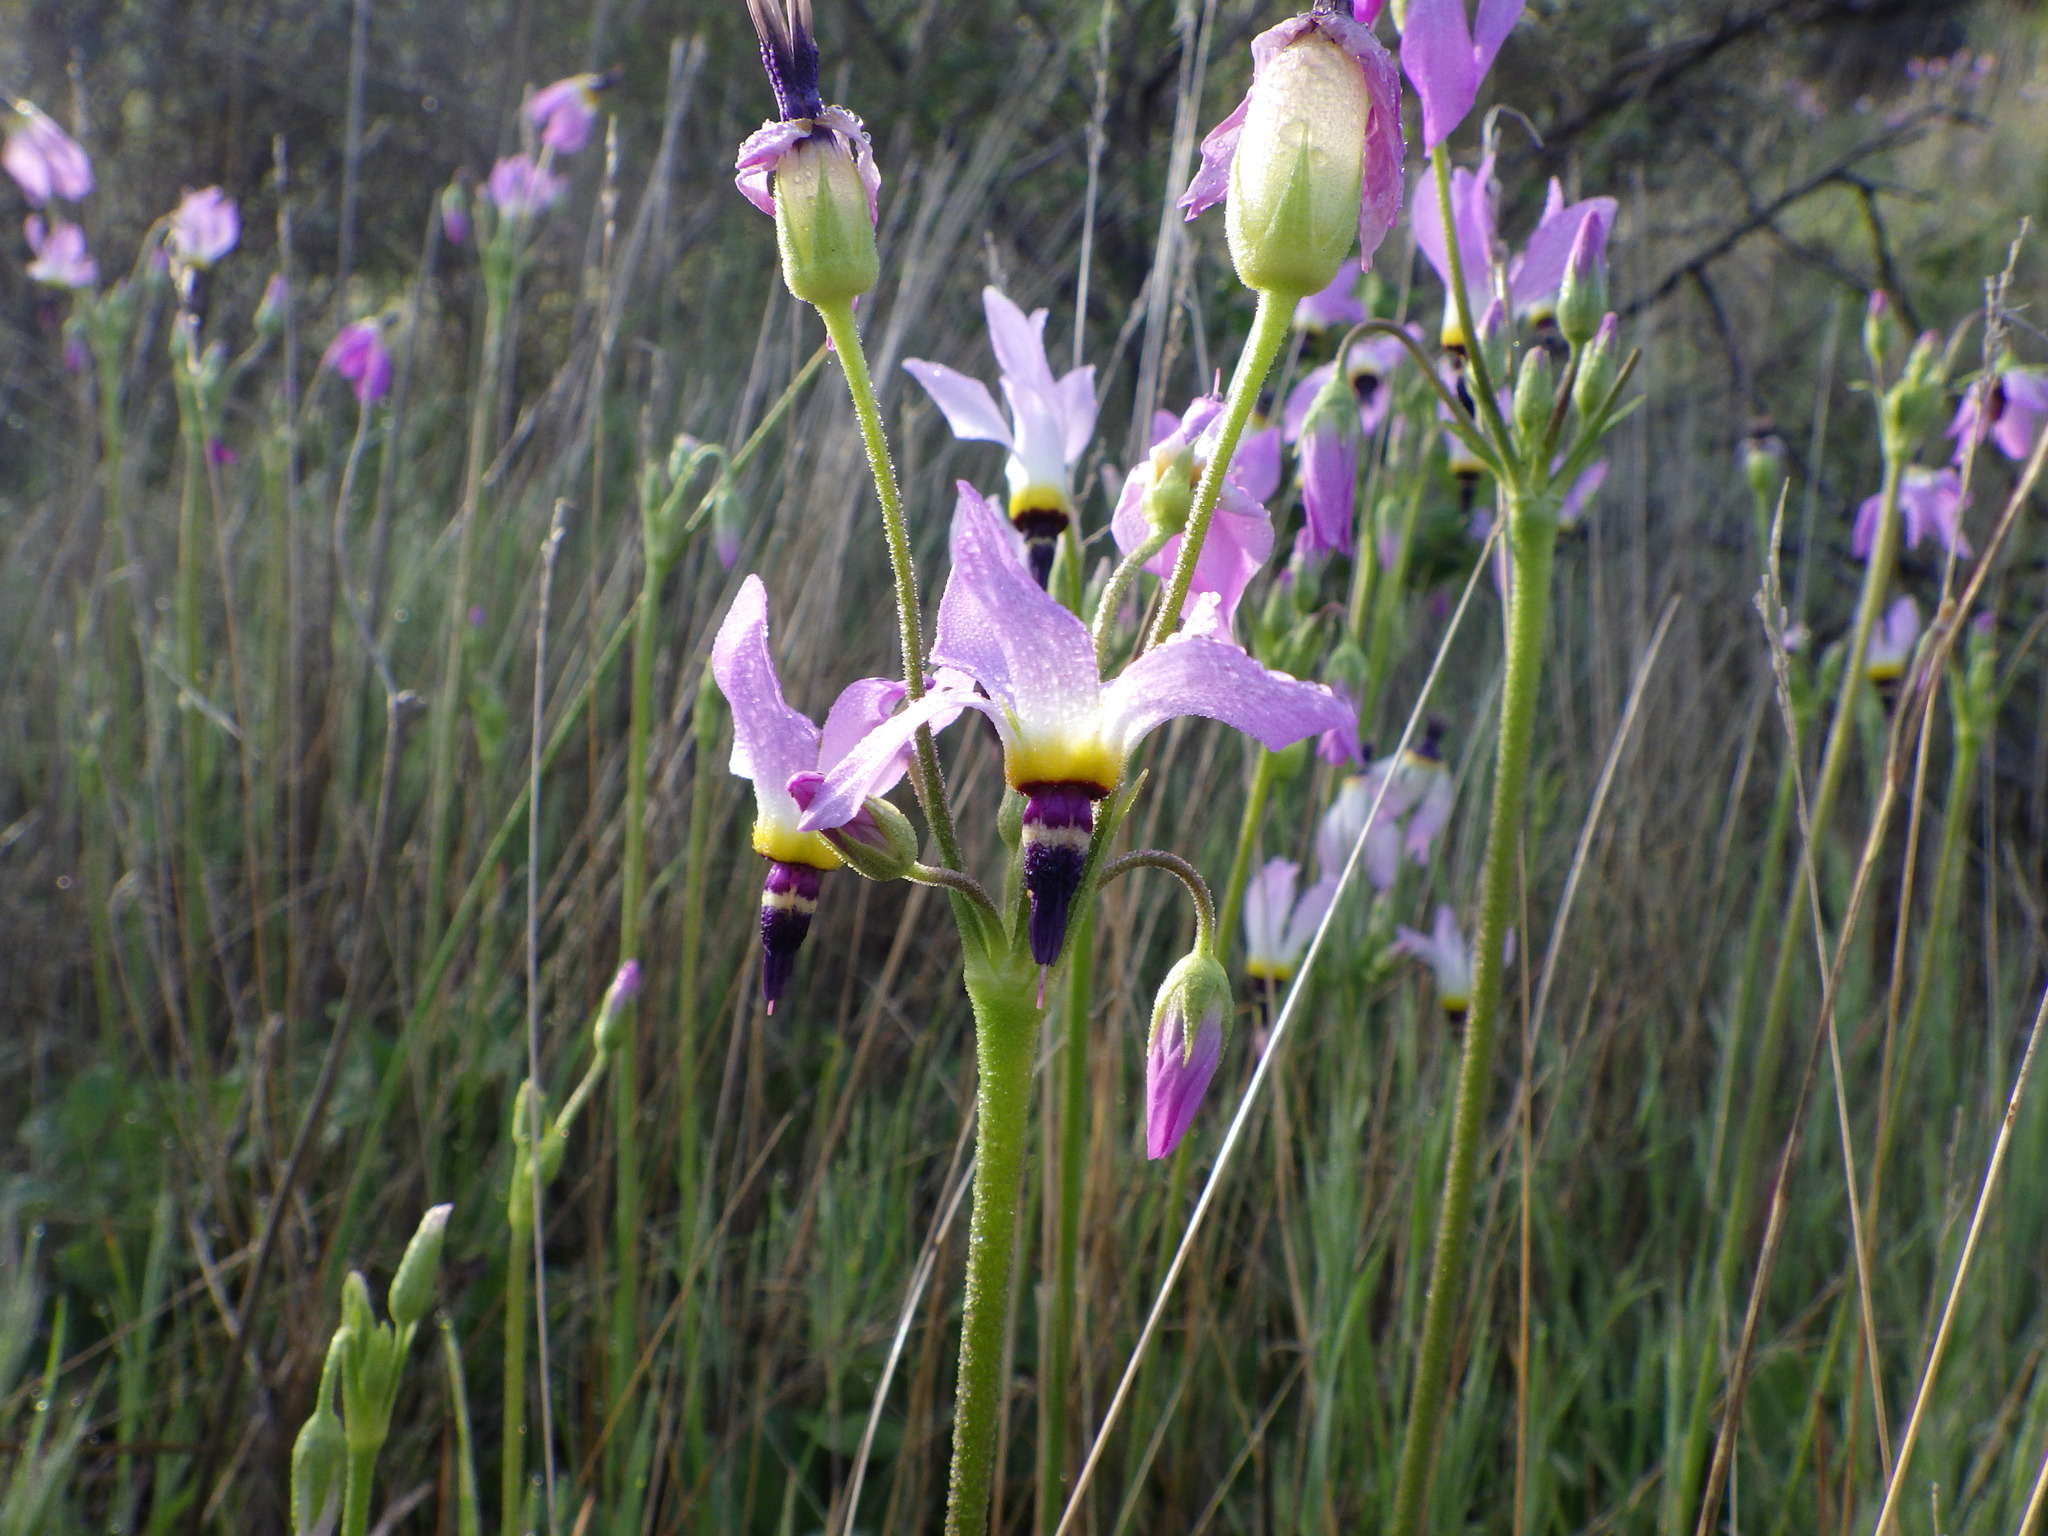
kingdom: Plantae
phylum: Tracheophyta
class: Magnoliopsida
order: Ericales
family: Primulaceae
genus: Dodecatheon
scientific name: Dodecatheon clevelandii
